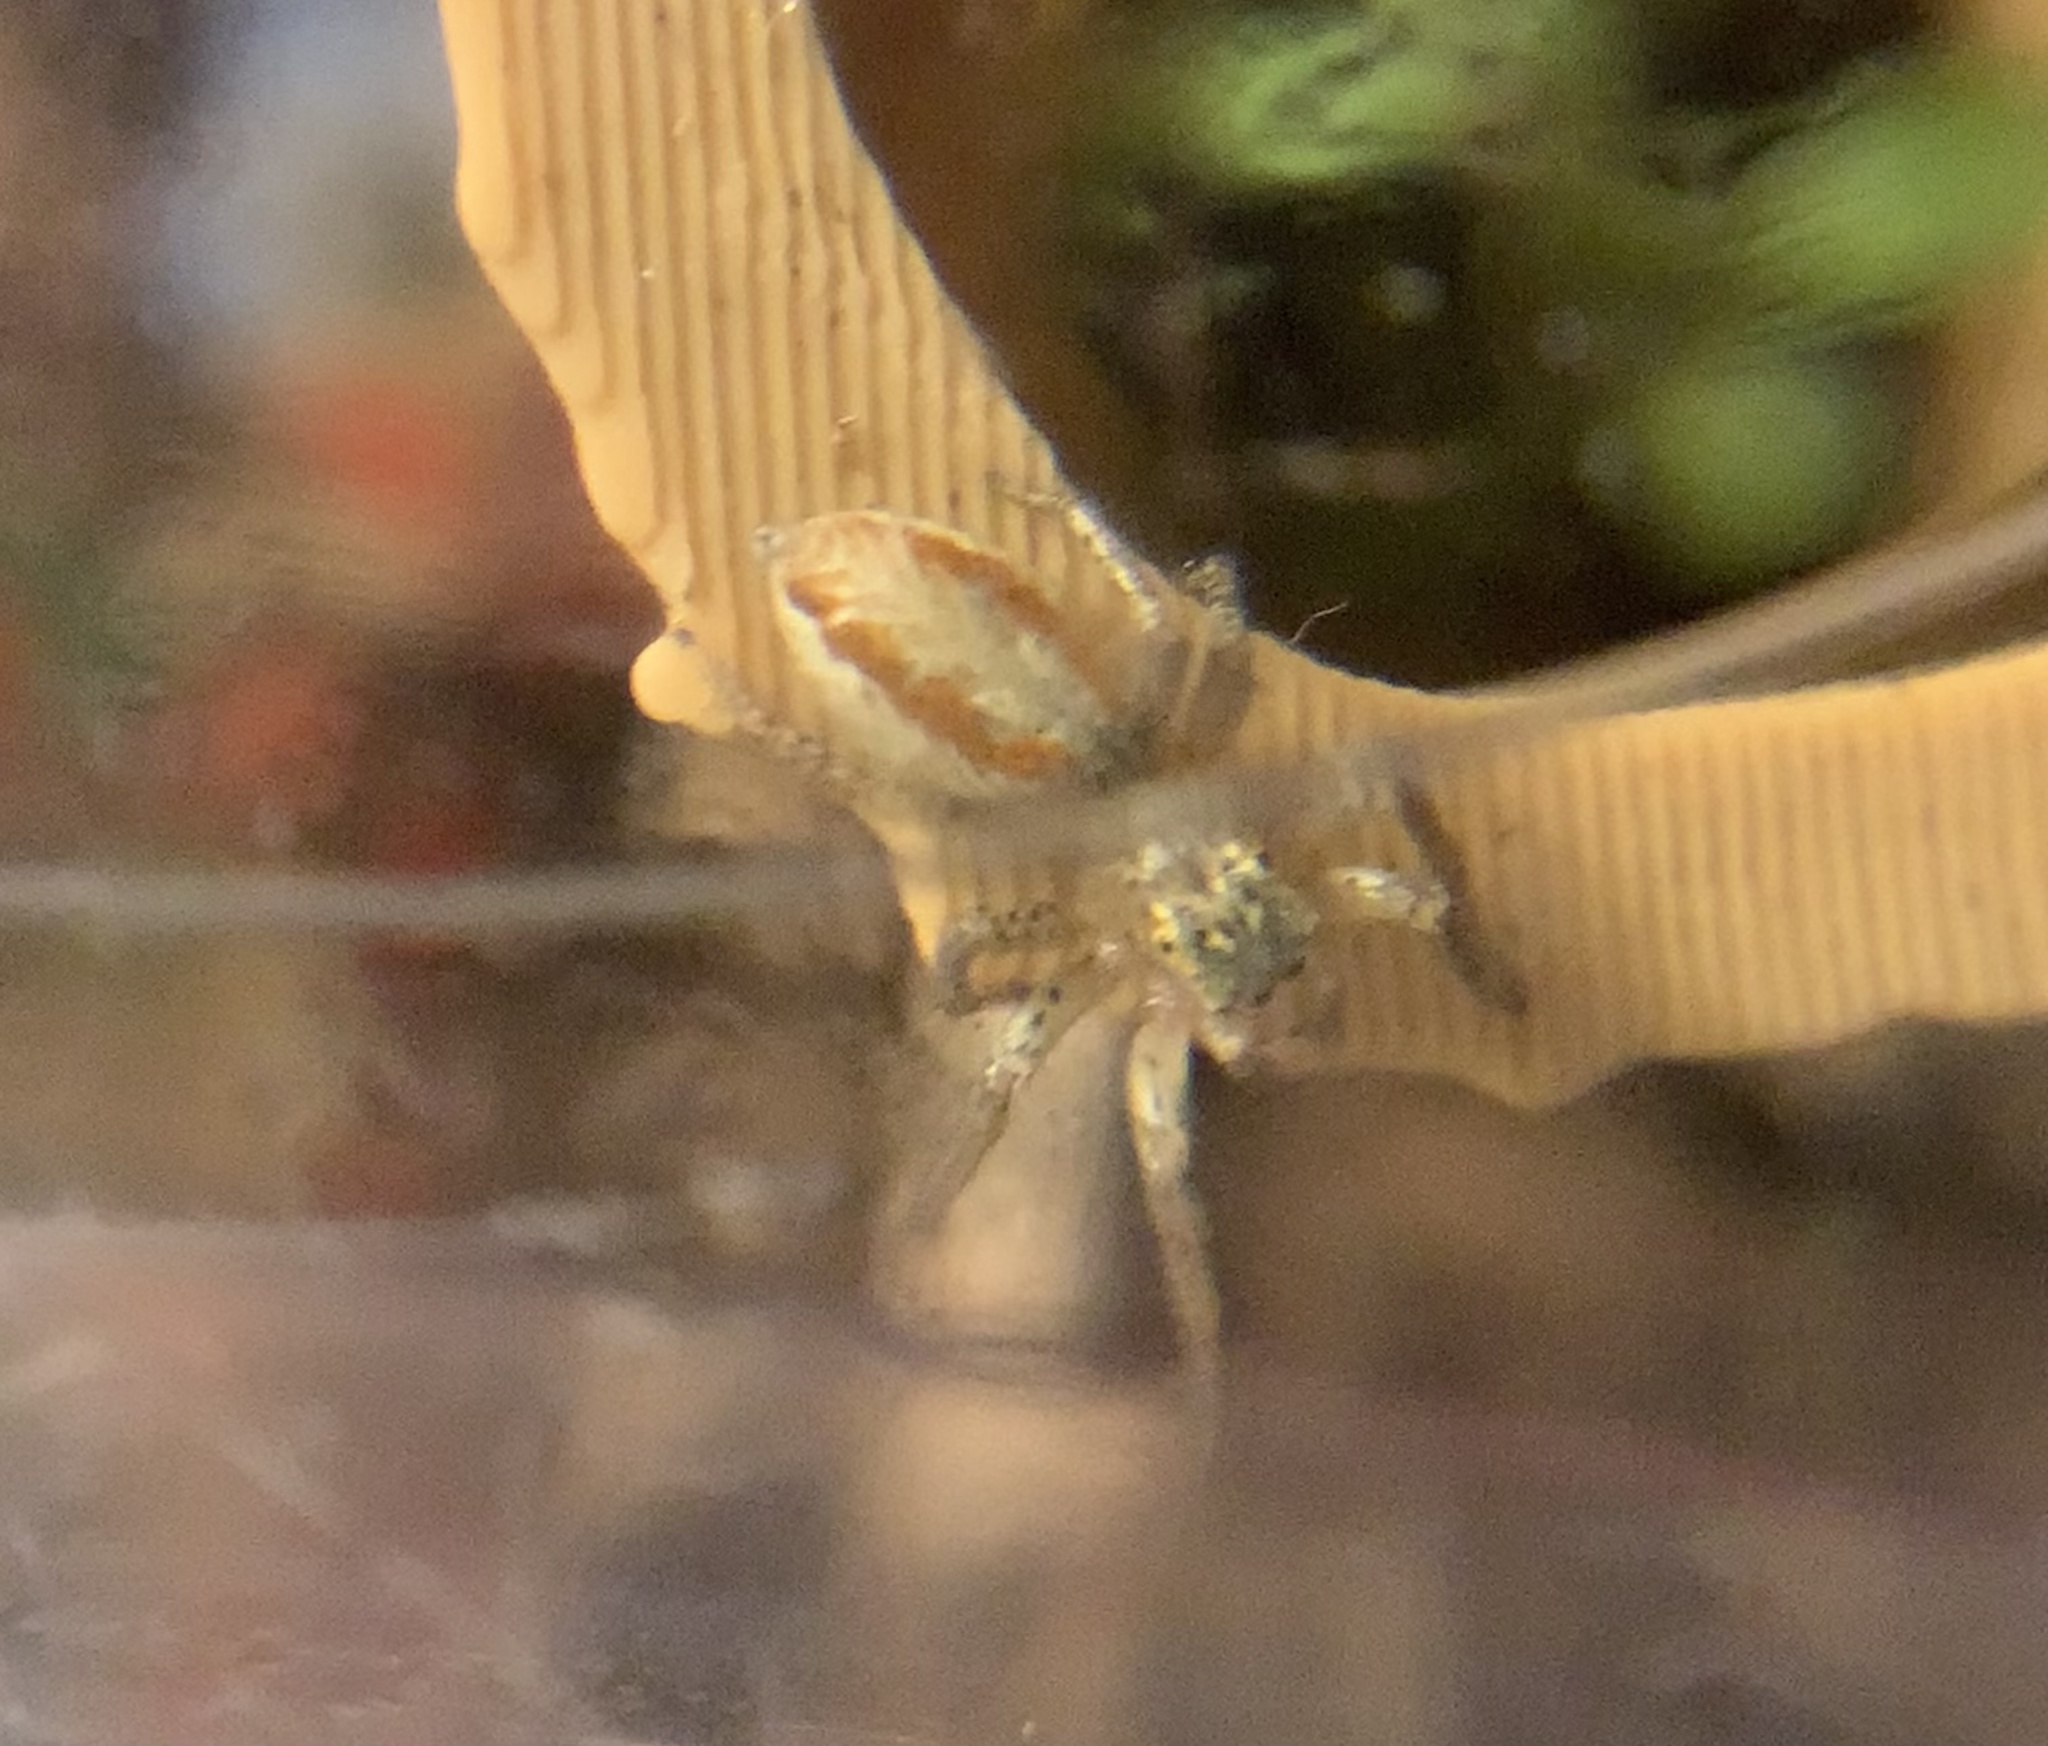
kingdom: Animalia
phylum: Arthropoda
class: Arachnida
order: Araneae
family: Salticidae
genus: Maevia
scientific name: Maevia inclemens
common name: Dimorphic jumper
